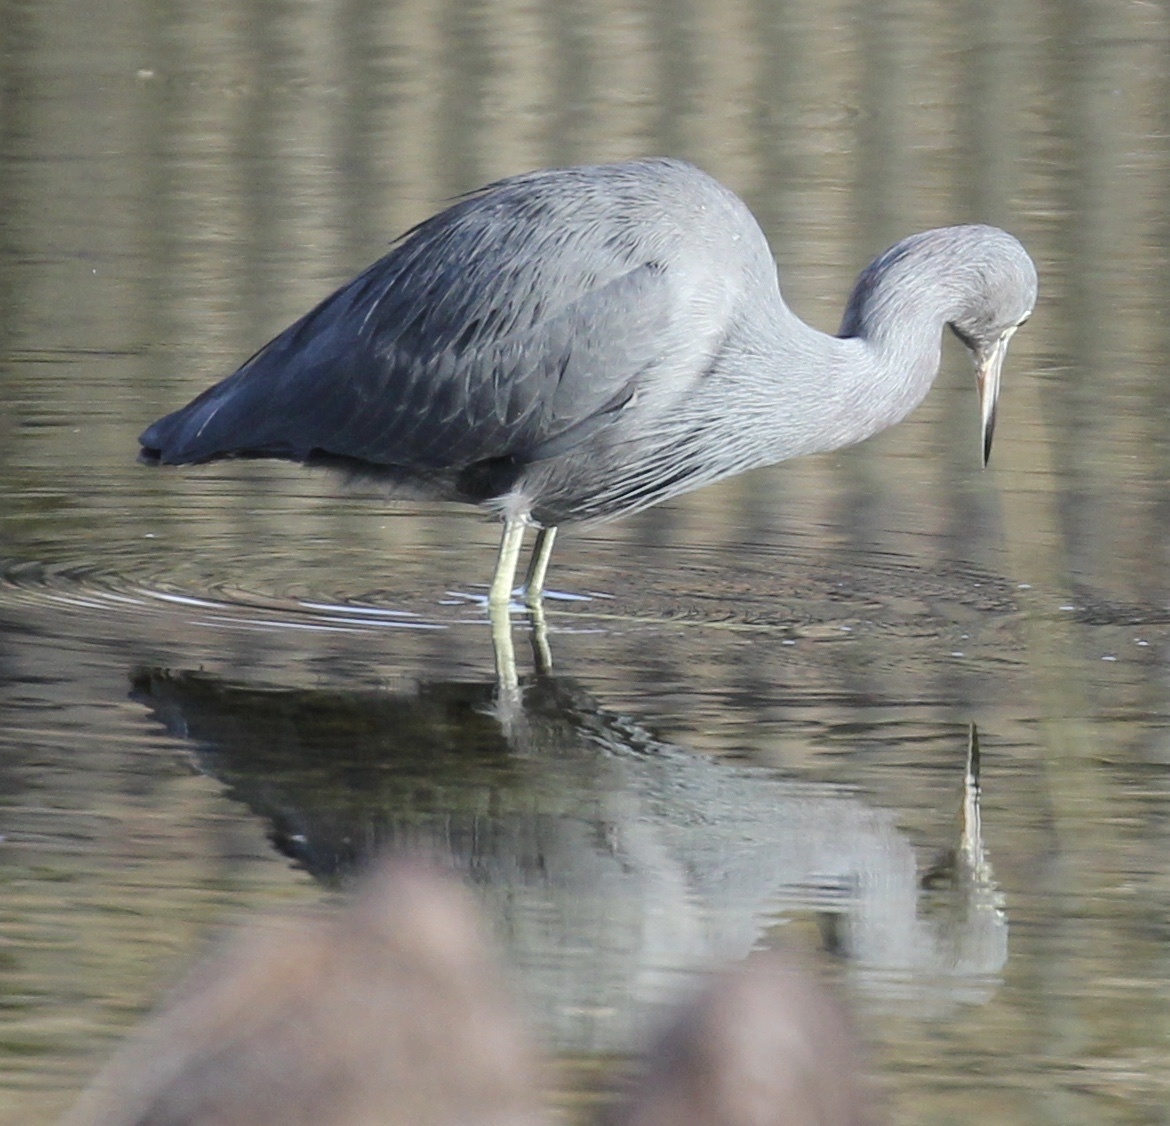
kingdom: Animalia
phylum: Chordata
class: Aves
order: Pelecaniformes
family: Ardeidae
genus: Egretta
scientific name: Egretta caerulea
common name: Little blue heron
